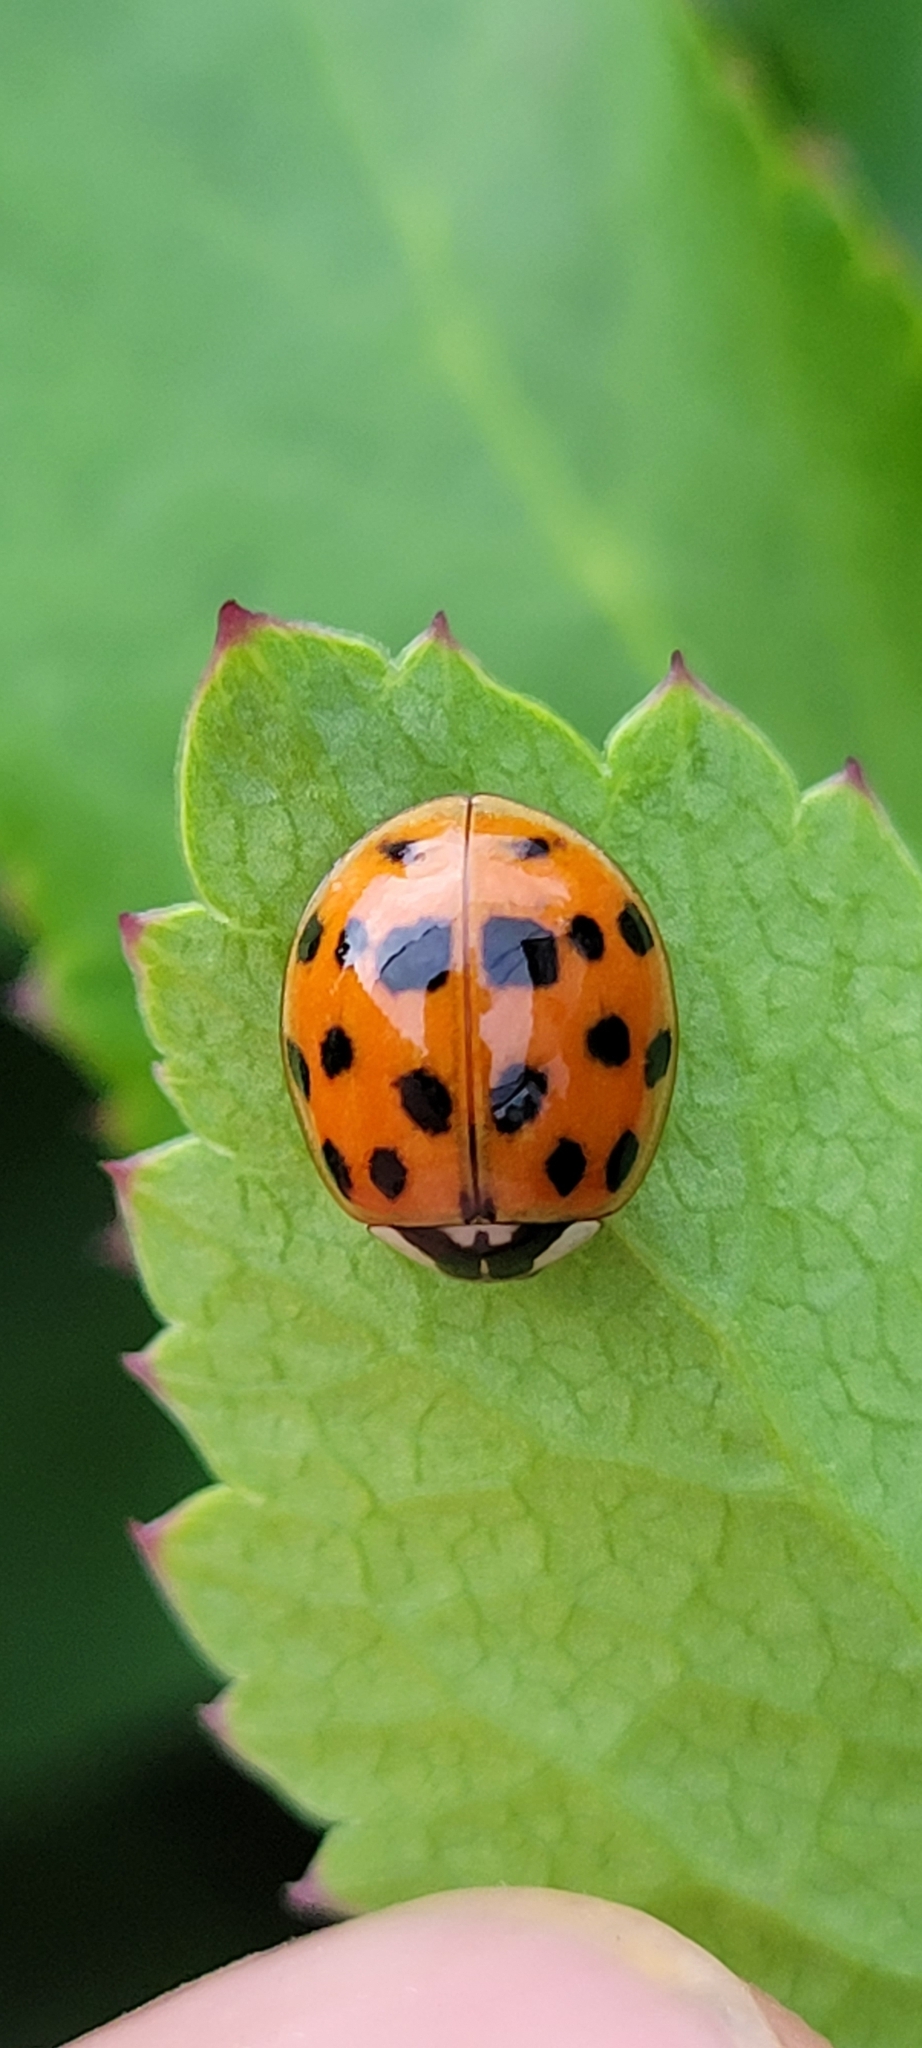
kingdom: Animalia
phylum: Arthropoda
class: Insecta
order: Coleoptera
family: Coccinellidae
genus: Harmonia
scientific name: Harmonia axyridis
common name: Harlequin ladybird
